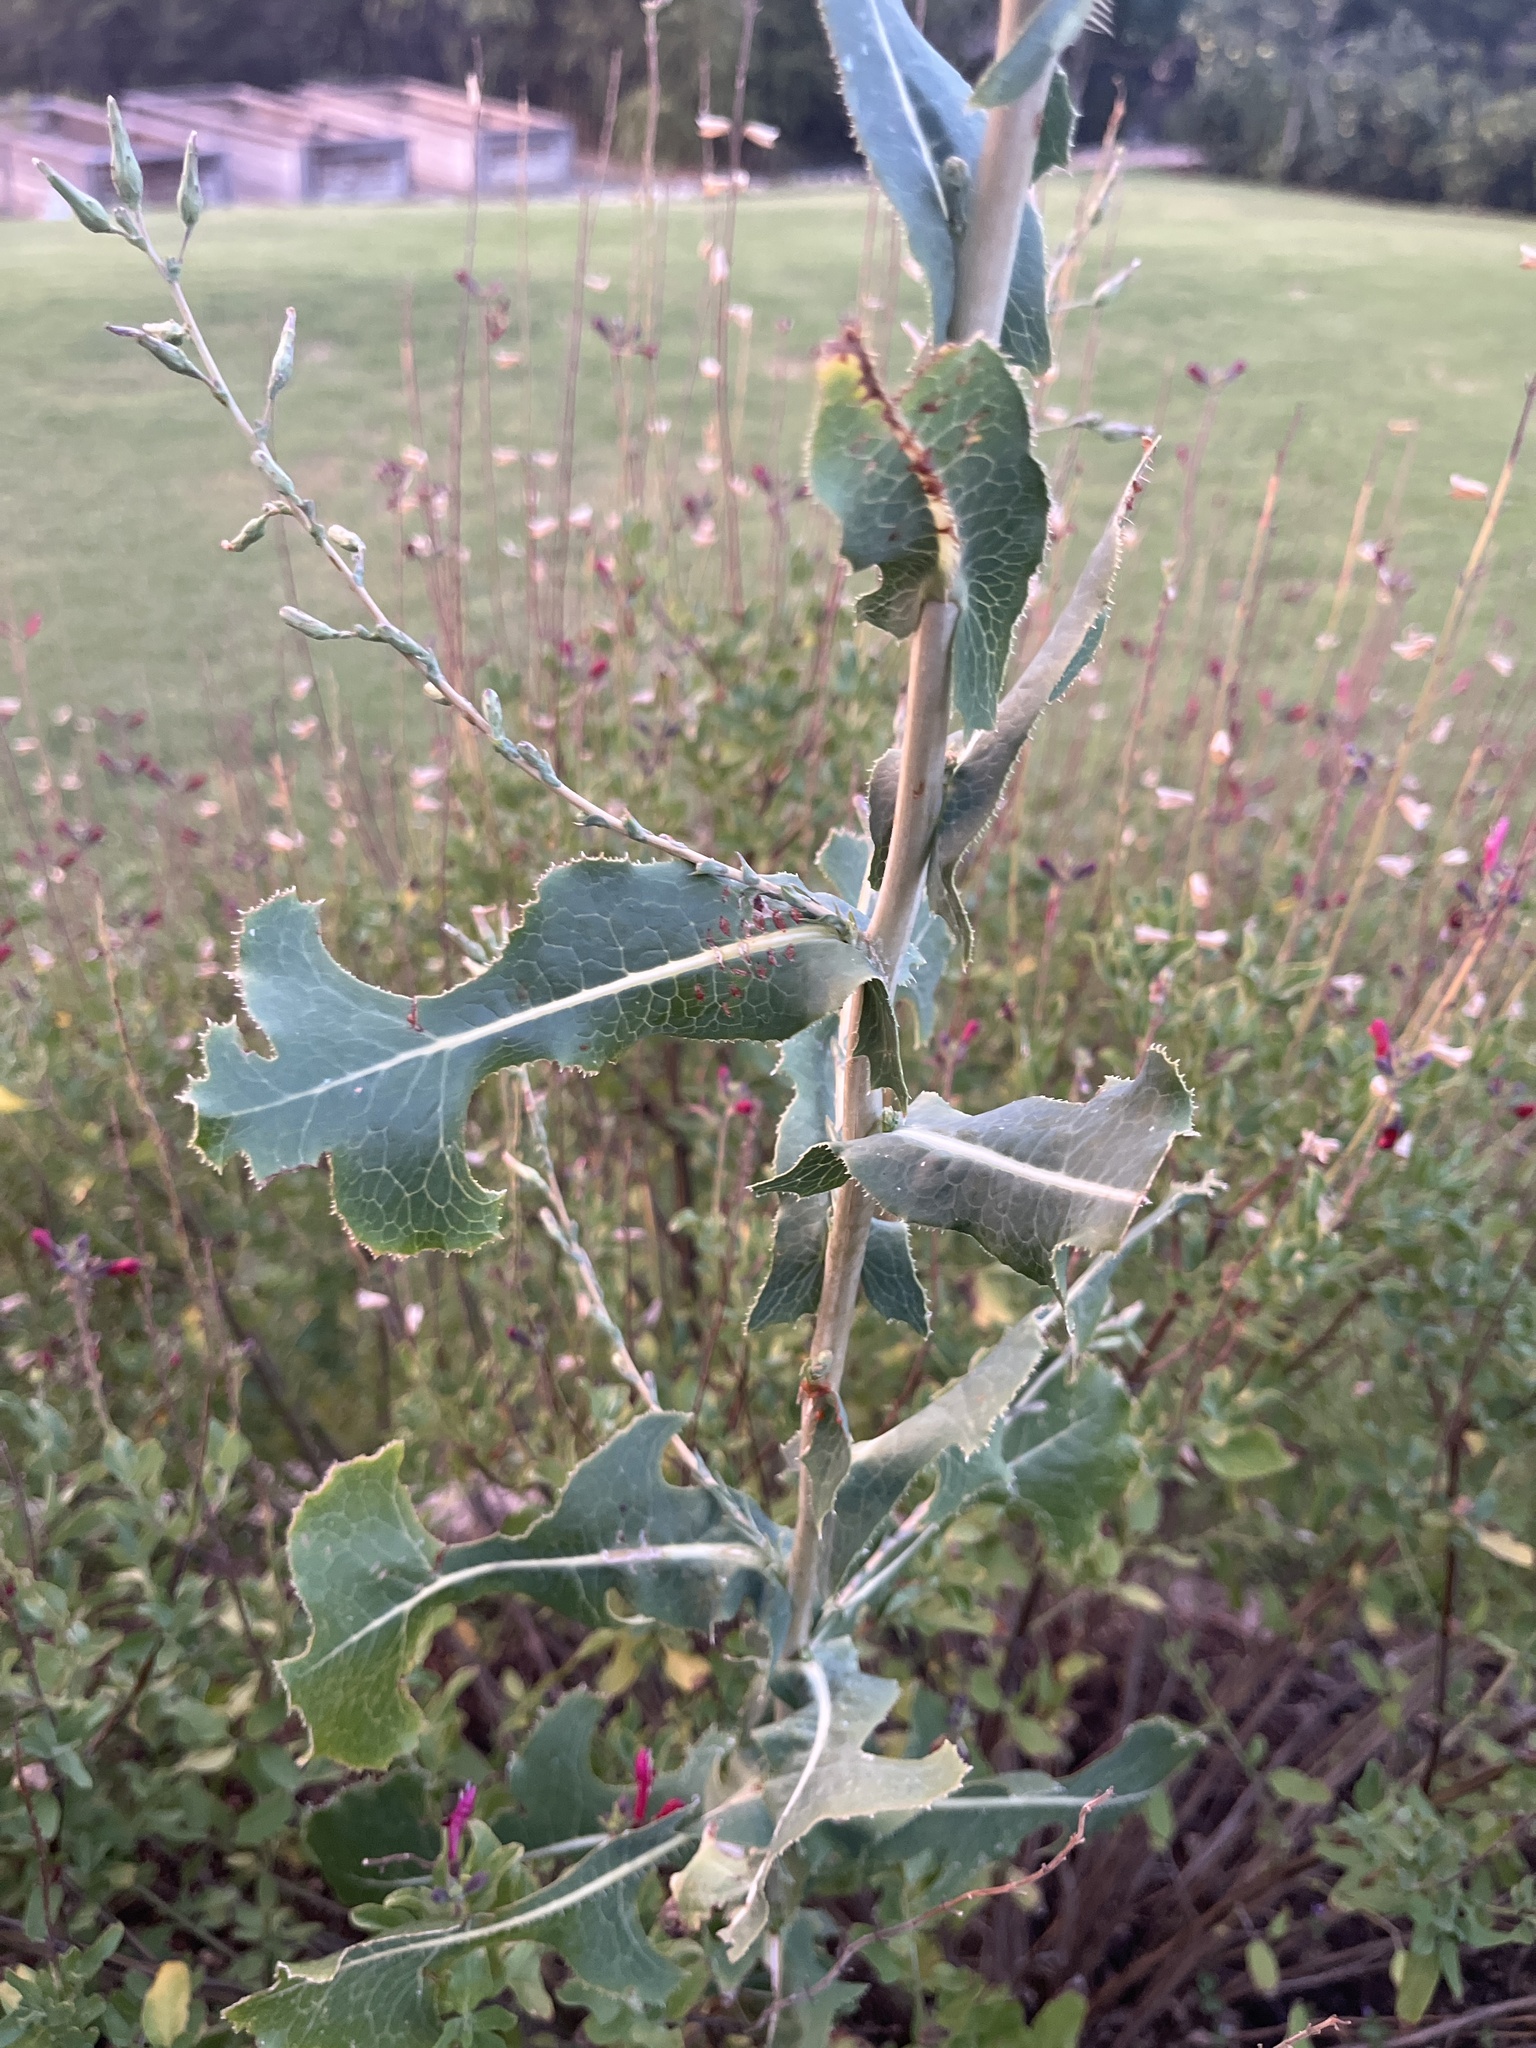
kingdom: Plantae
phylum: Tracheophyta
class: Magnoliopsida
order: Asterales
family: Asteraceae
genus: Lactuca
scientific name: Lactuca serriola
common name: Prickly lettuce
